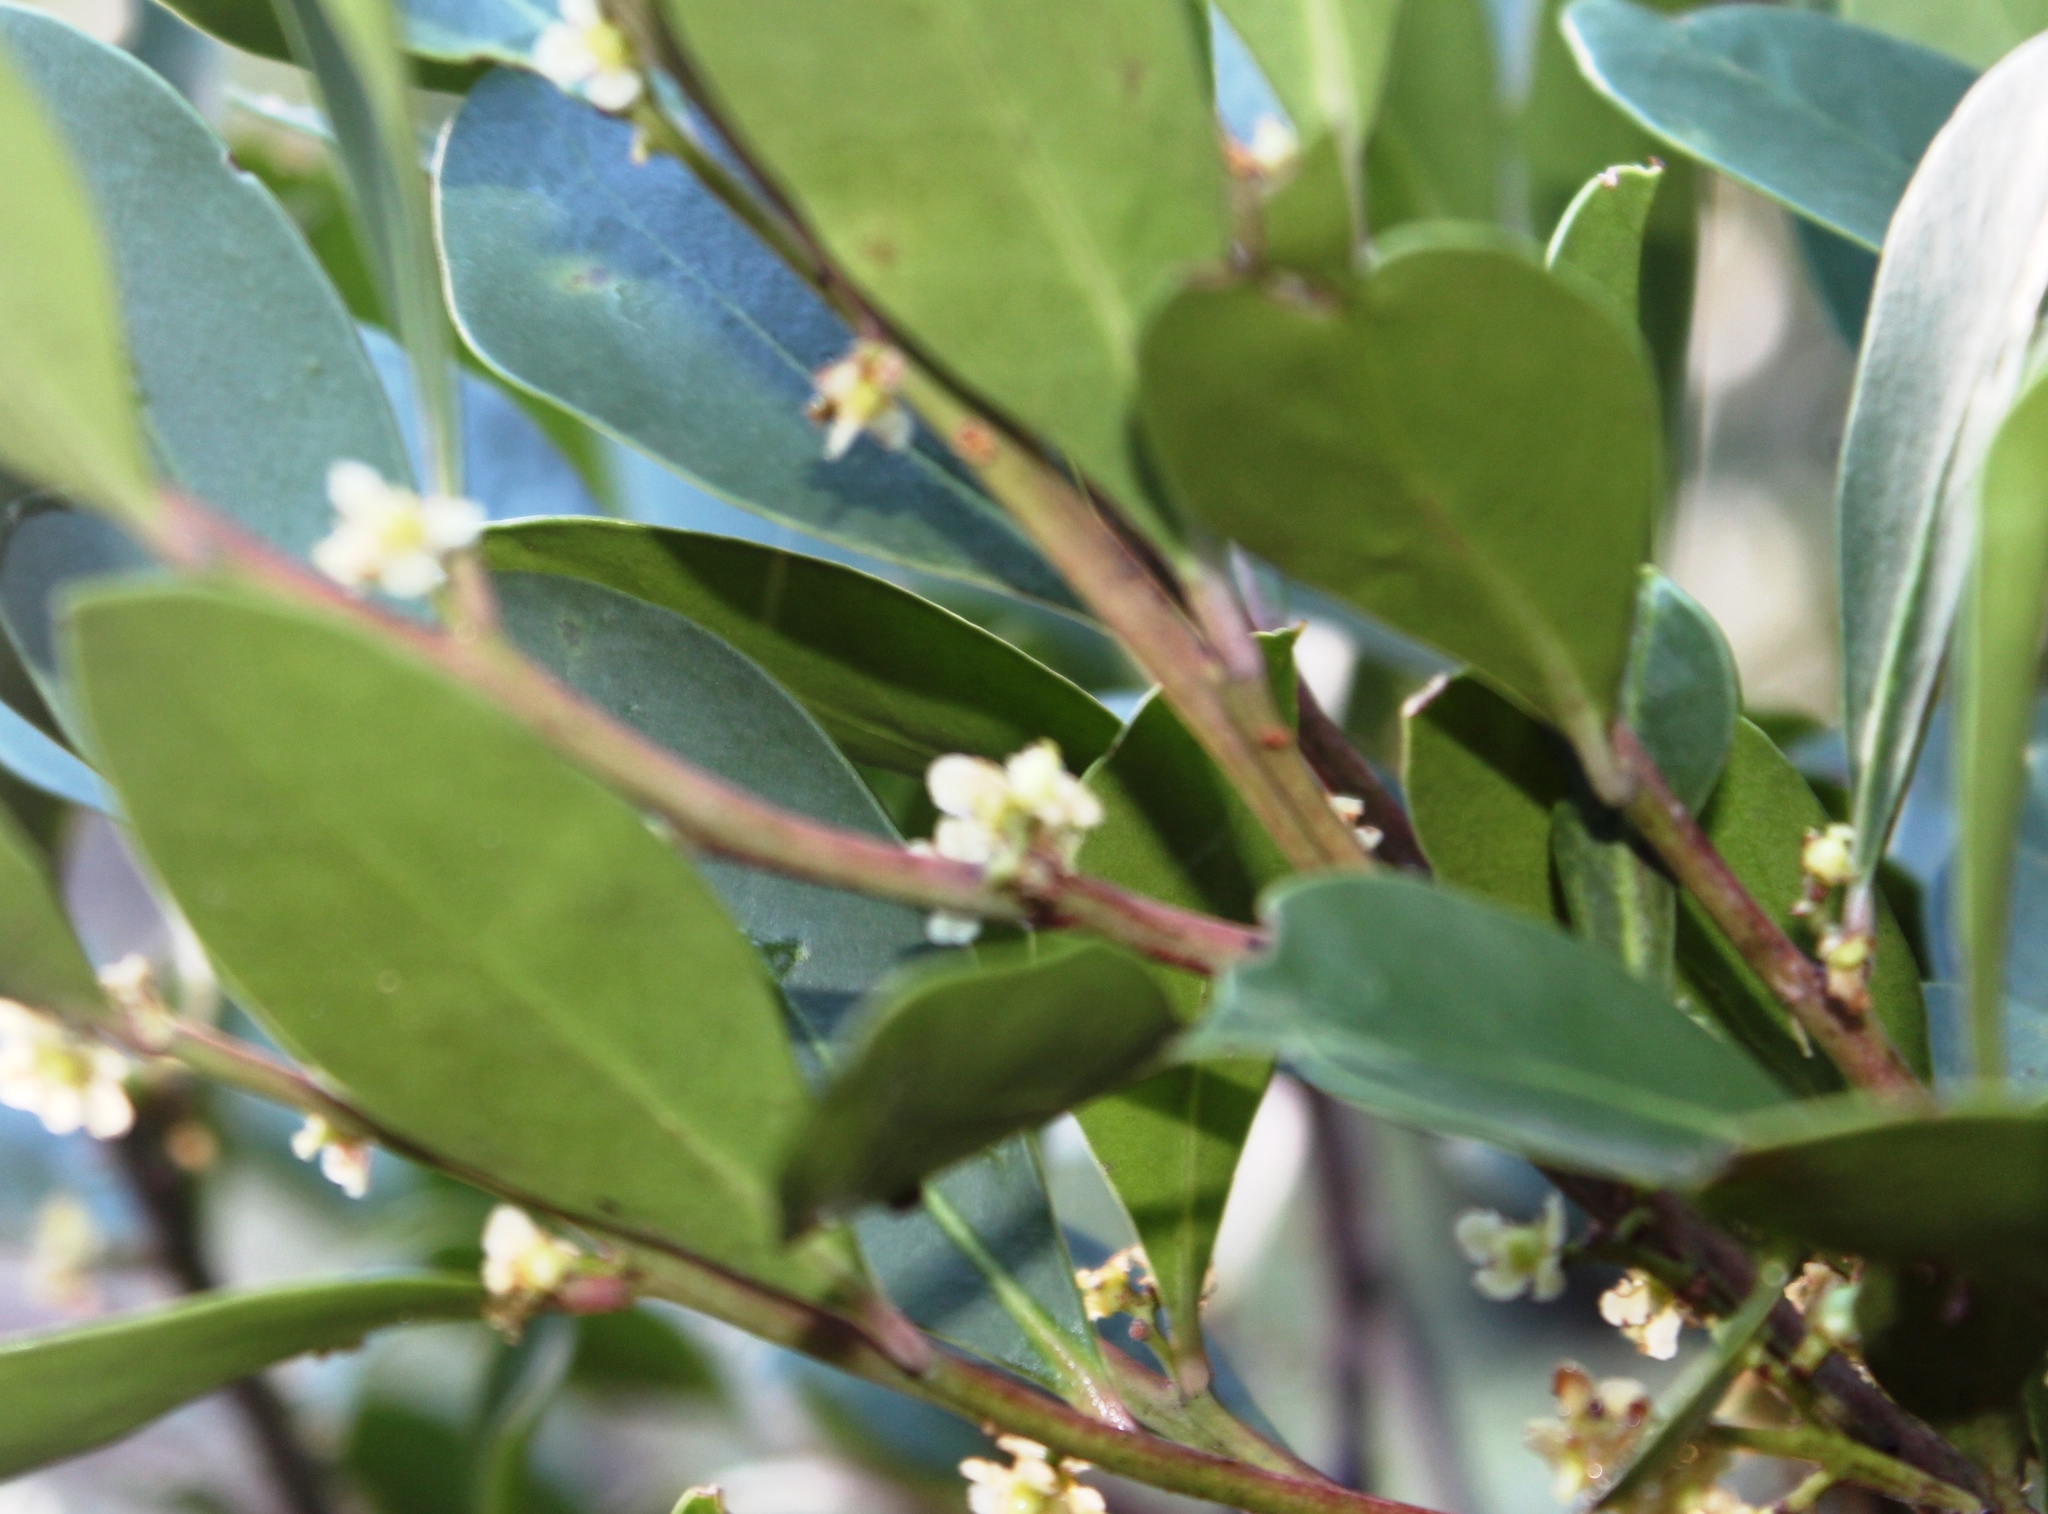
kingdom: Plantae
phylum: Tracheophyta
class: Magnoliopsida
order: Celastrales
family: Celastraceae
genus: Pterocelastrus
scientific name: Pterocelastrus tricuspidatus
